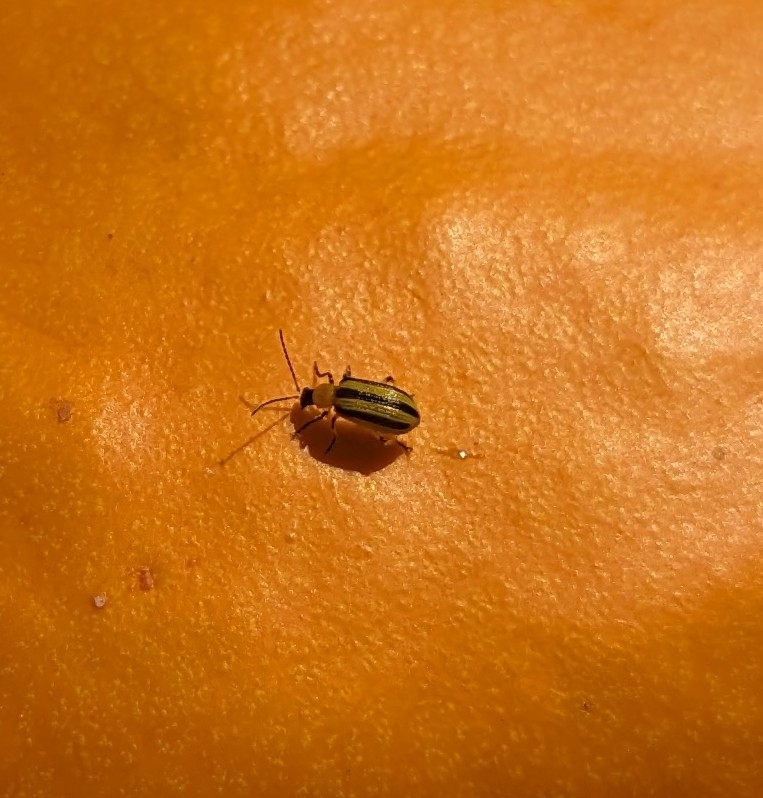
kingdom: Animalia
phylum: Arthropoda
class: Insecta
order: Coleoptera
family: Chrysomelidae
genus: Acalymma
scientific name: Acalymma vittatum
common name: Striped cucumber beetle
